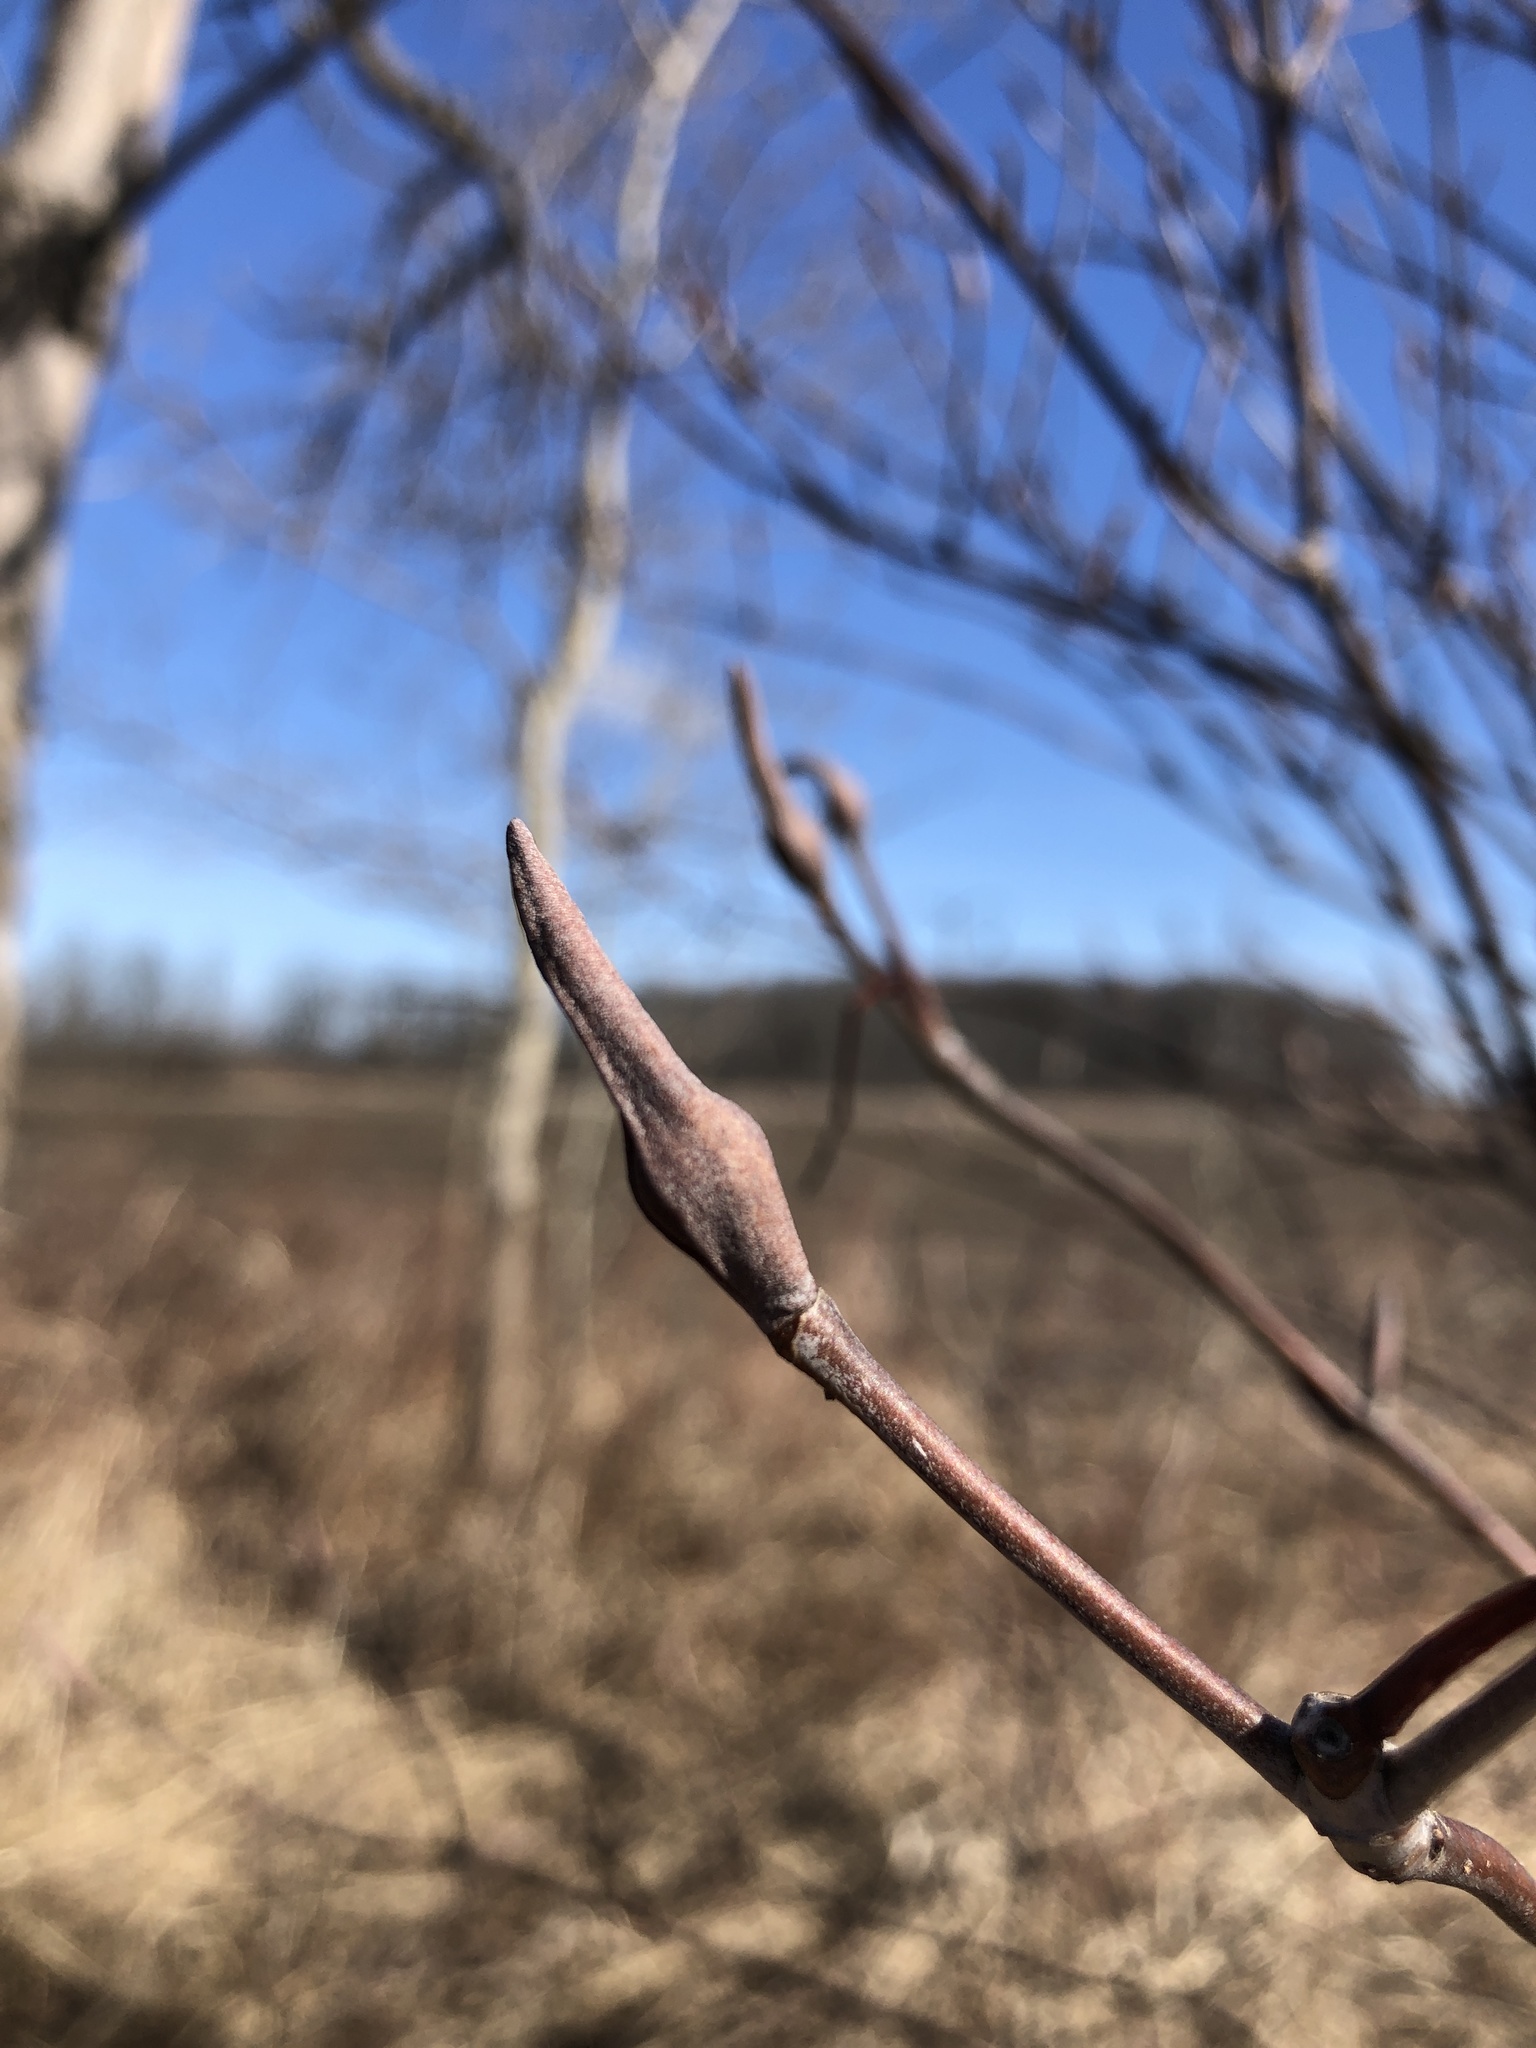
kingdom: Plantae
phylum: Tracheophyta
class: Magnoliopsida
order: Dipsacales
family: Viburnaceae
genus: Viburnum
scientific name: Viburnum lentago
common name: Black haw
